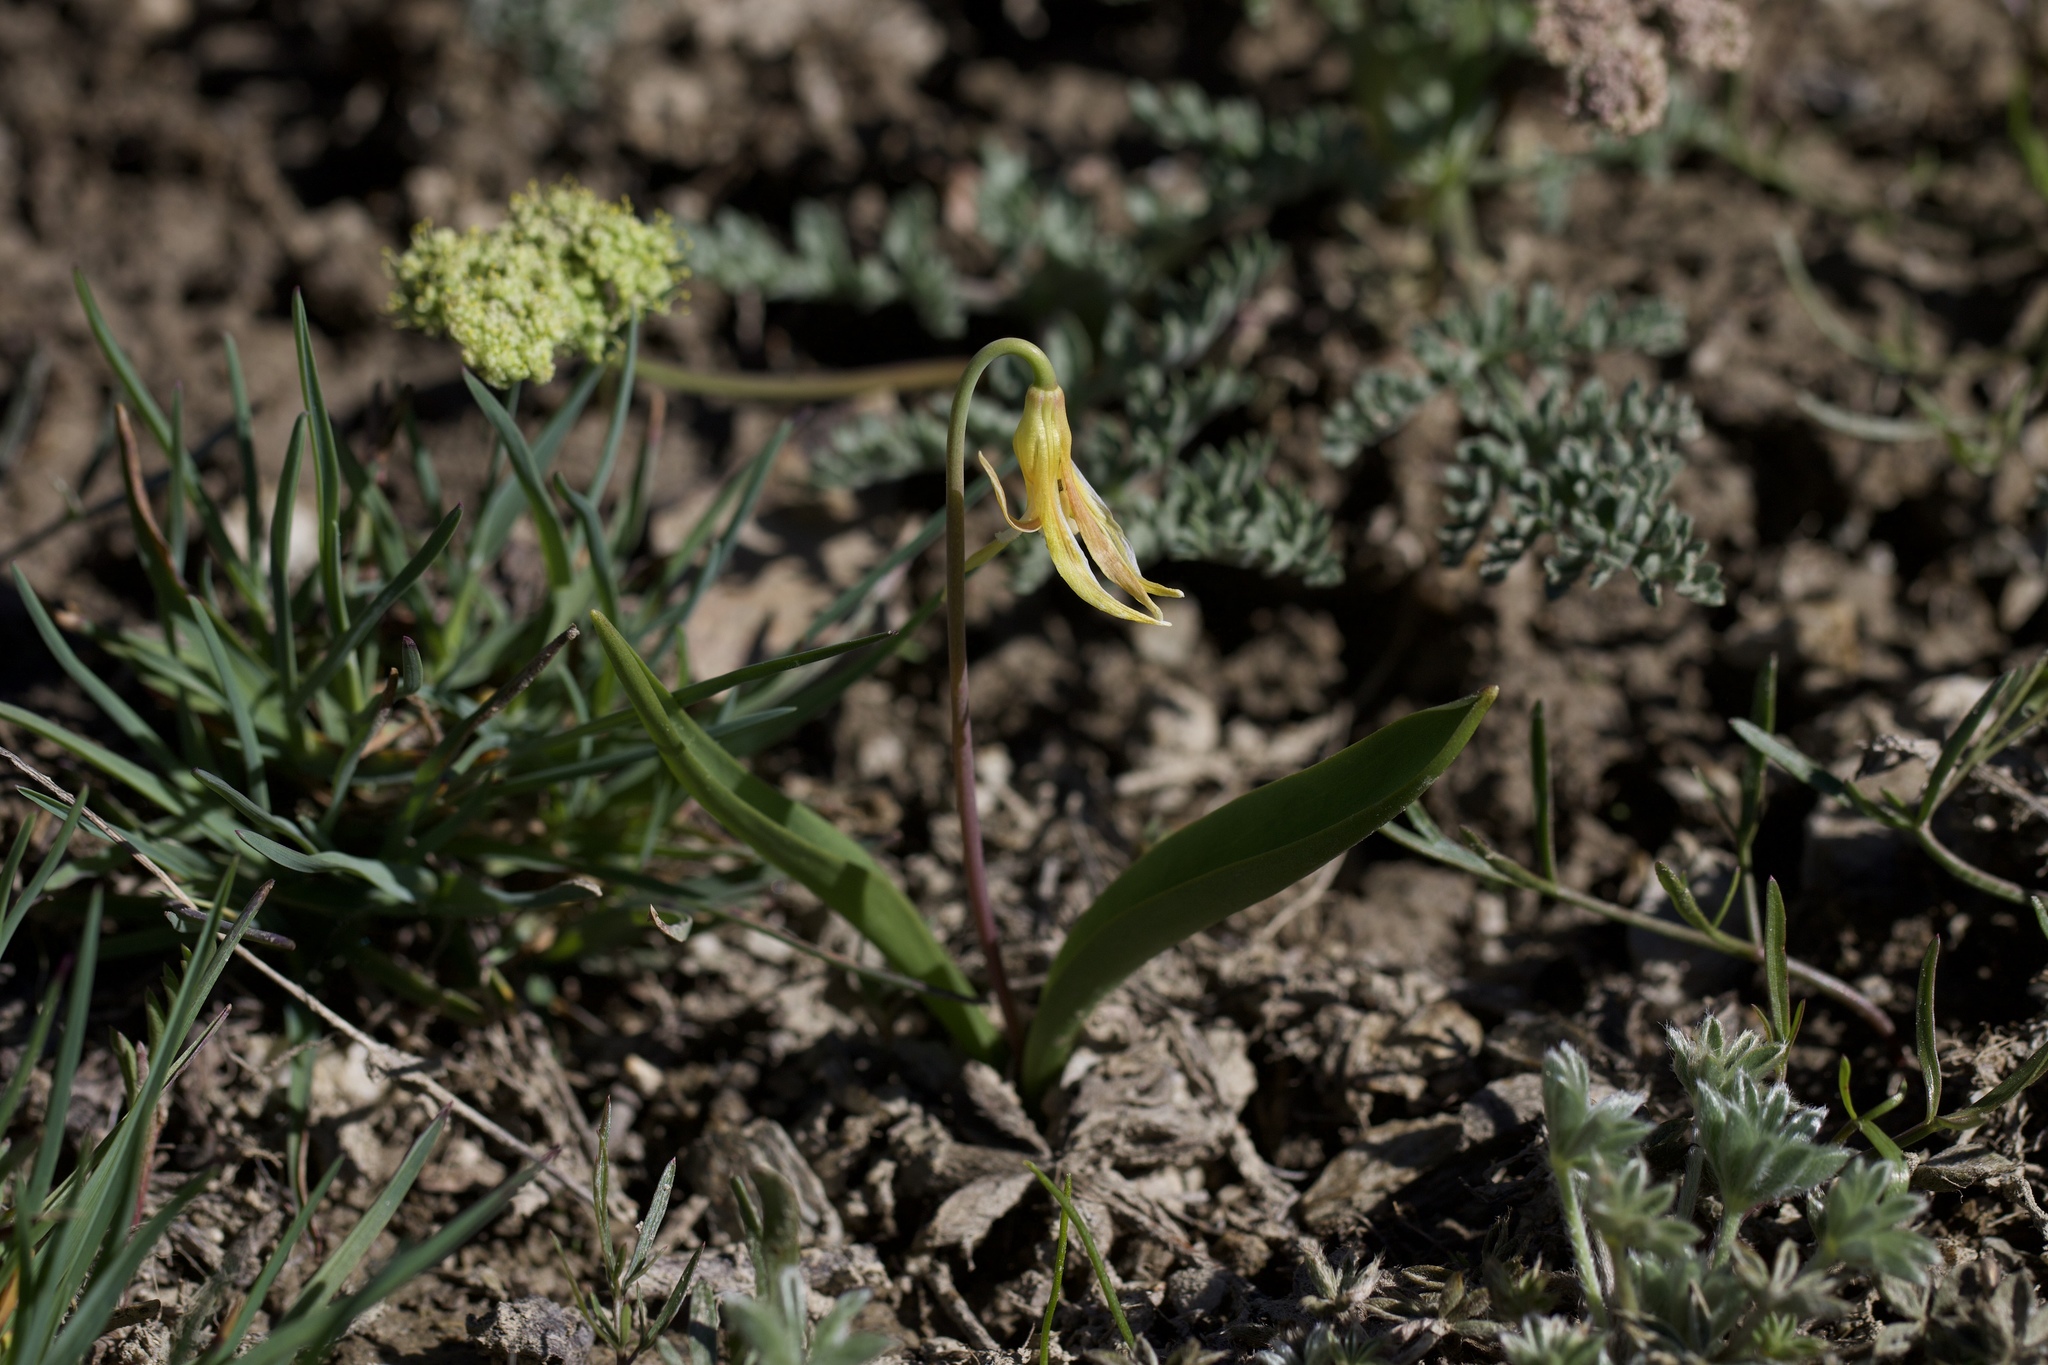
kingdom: Plantae
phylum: Tracheophyta
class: Liliopsida
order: Liliales
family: Liliaceae
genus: Erythronium
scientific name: Erythronium grandiflorum
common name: Avalanche-lily
